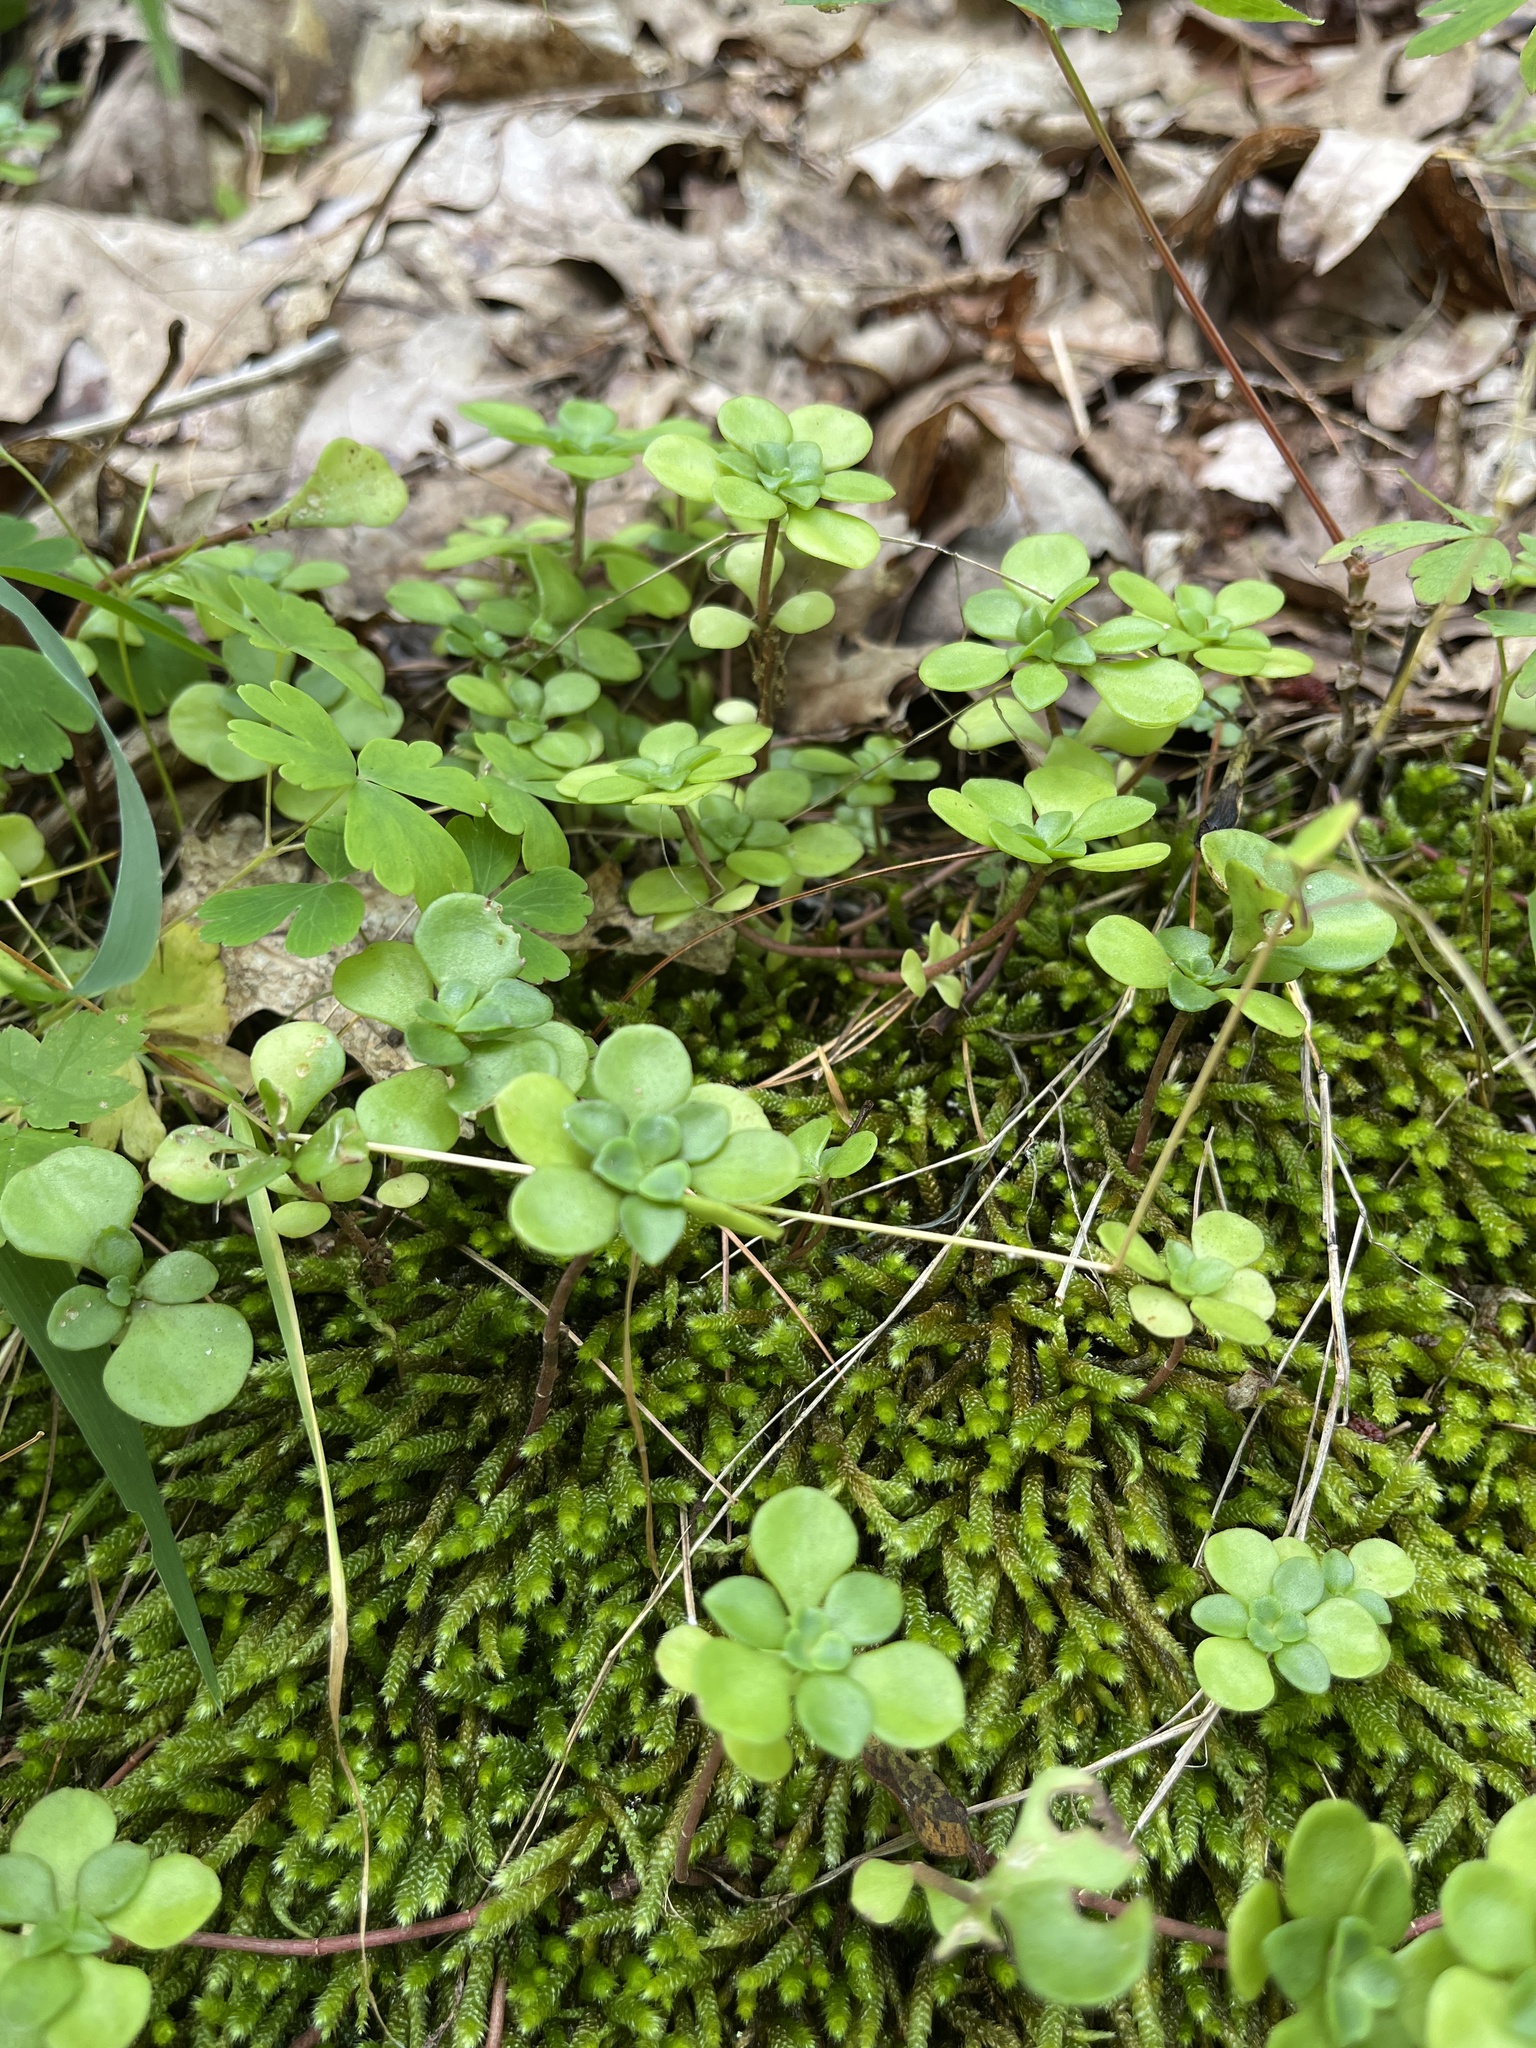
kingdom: Plantae
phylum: Tracheophyta
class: Magnoliopsida
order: Saxifragales
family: Crassulaceae
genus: Sedum
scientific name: Sedum ternatum
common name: Wild stonecrop
